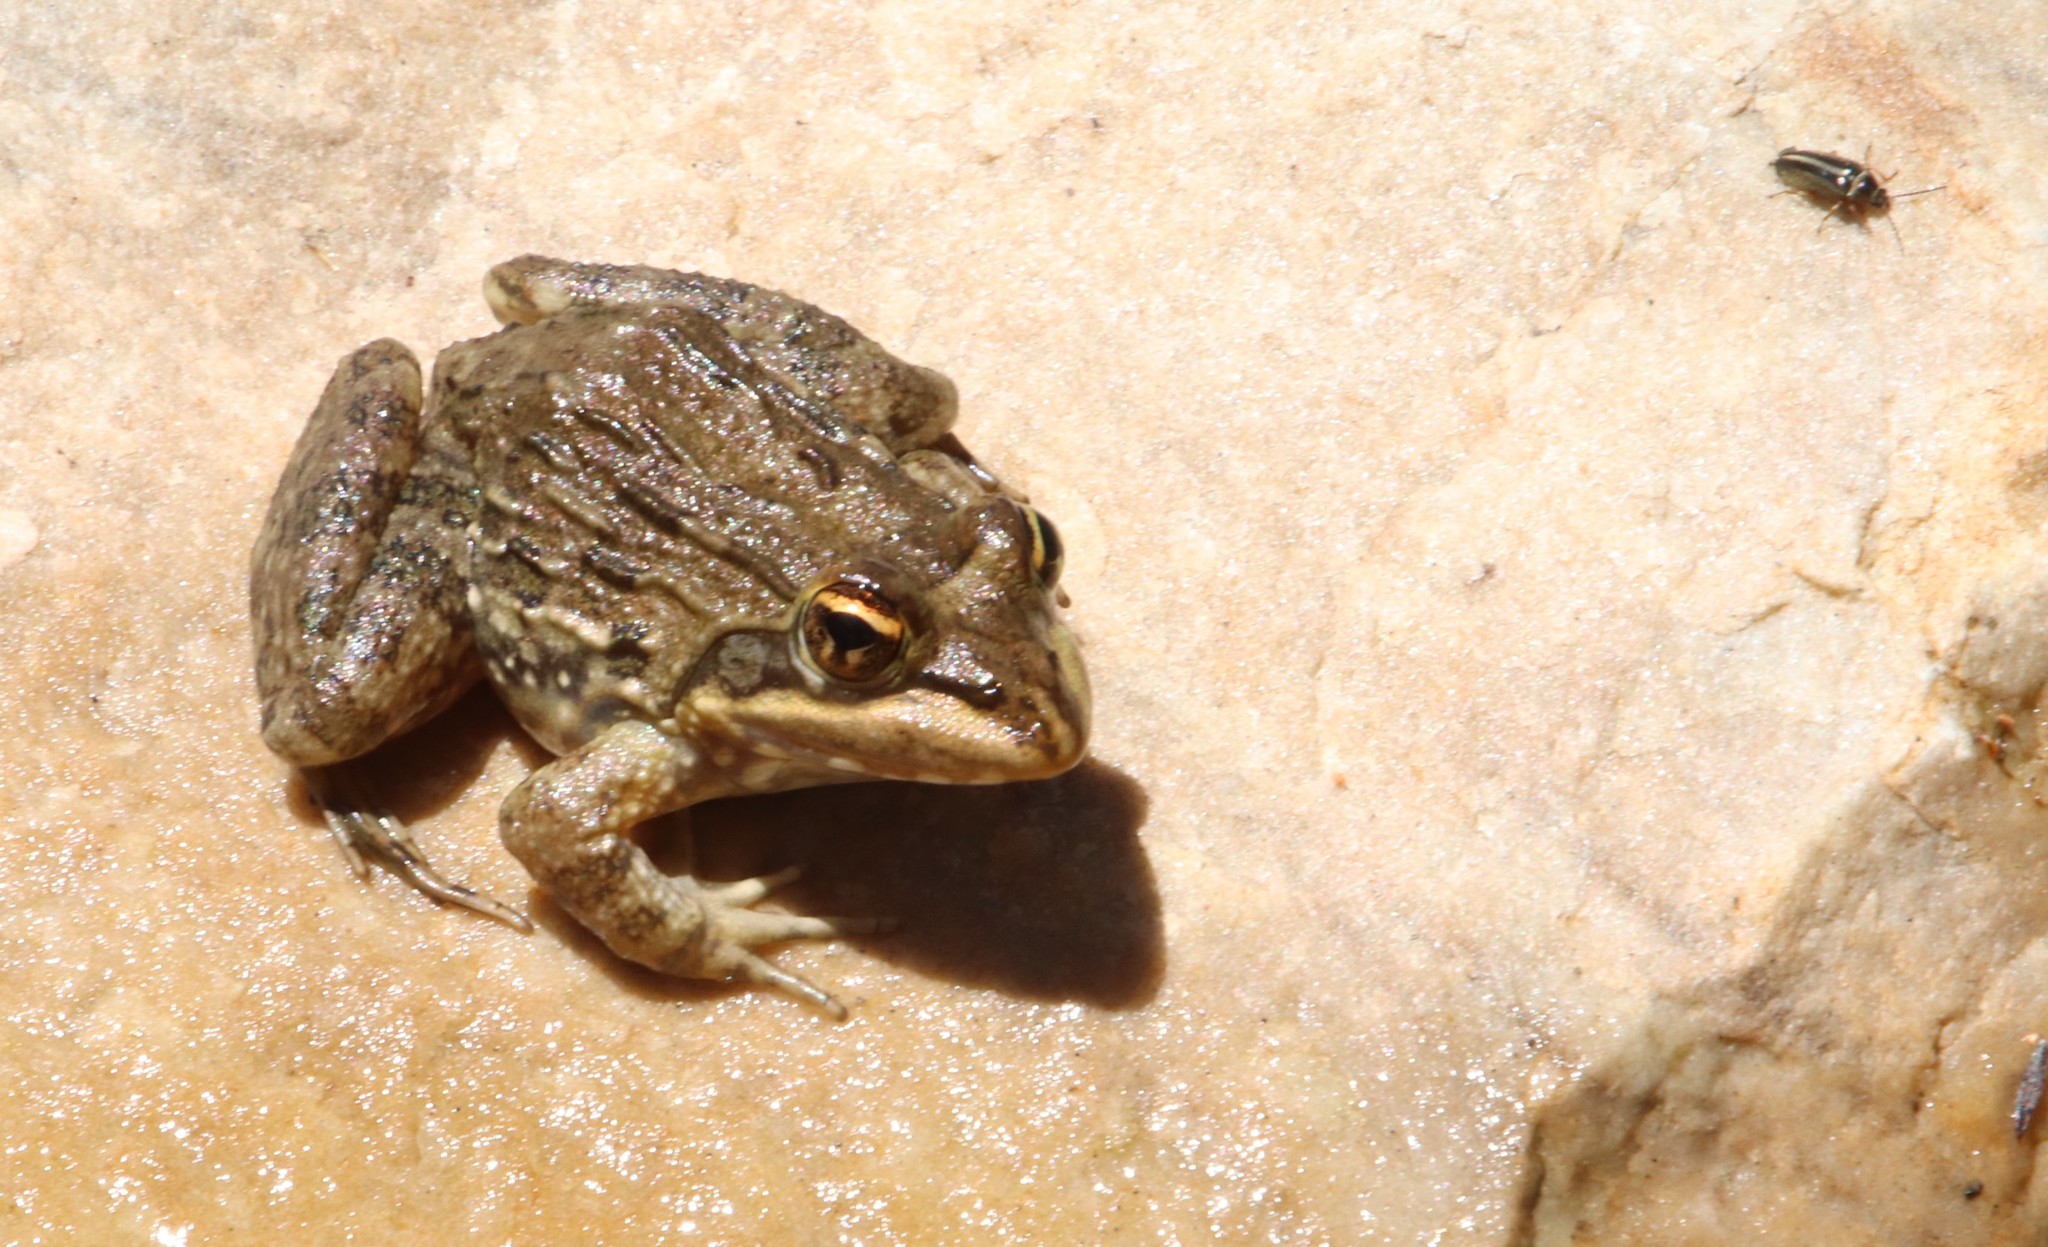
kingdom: Animalia
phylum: Chordata
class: Amphibia
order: Anura
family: Pyxicephalidae
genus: Amietia
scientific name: Amietia fuscigula
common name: Cape rana
